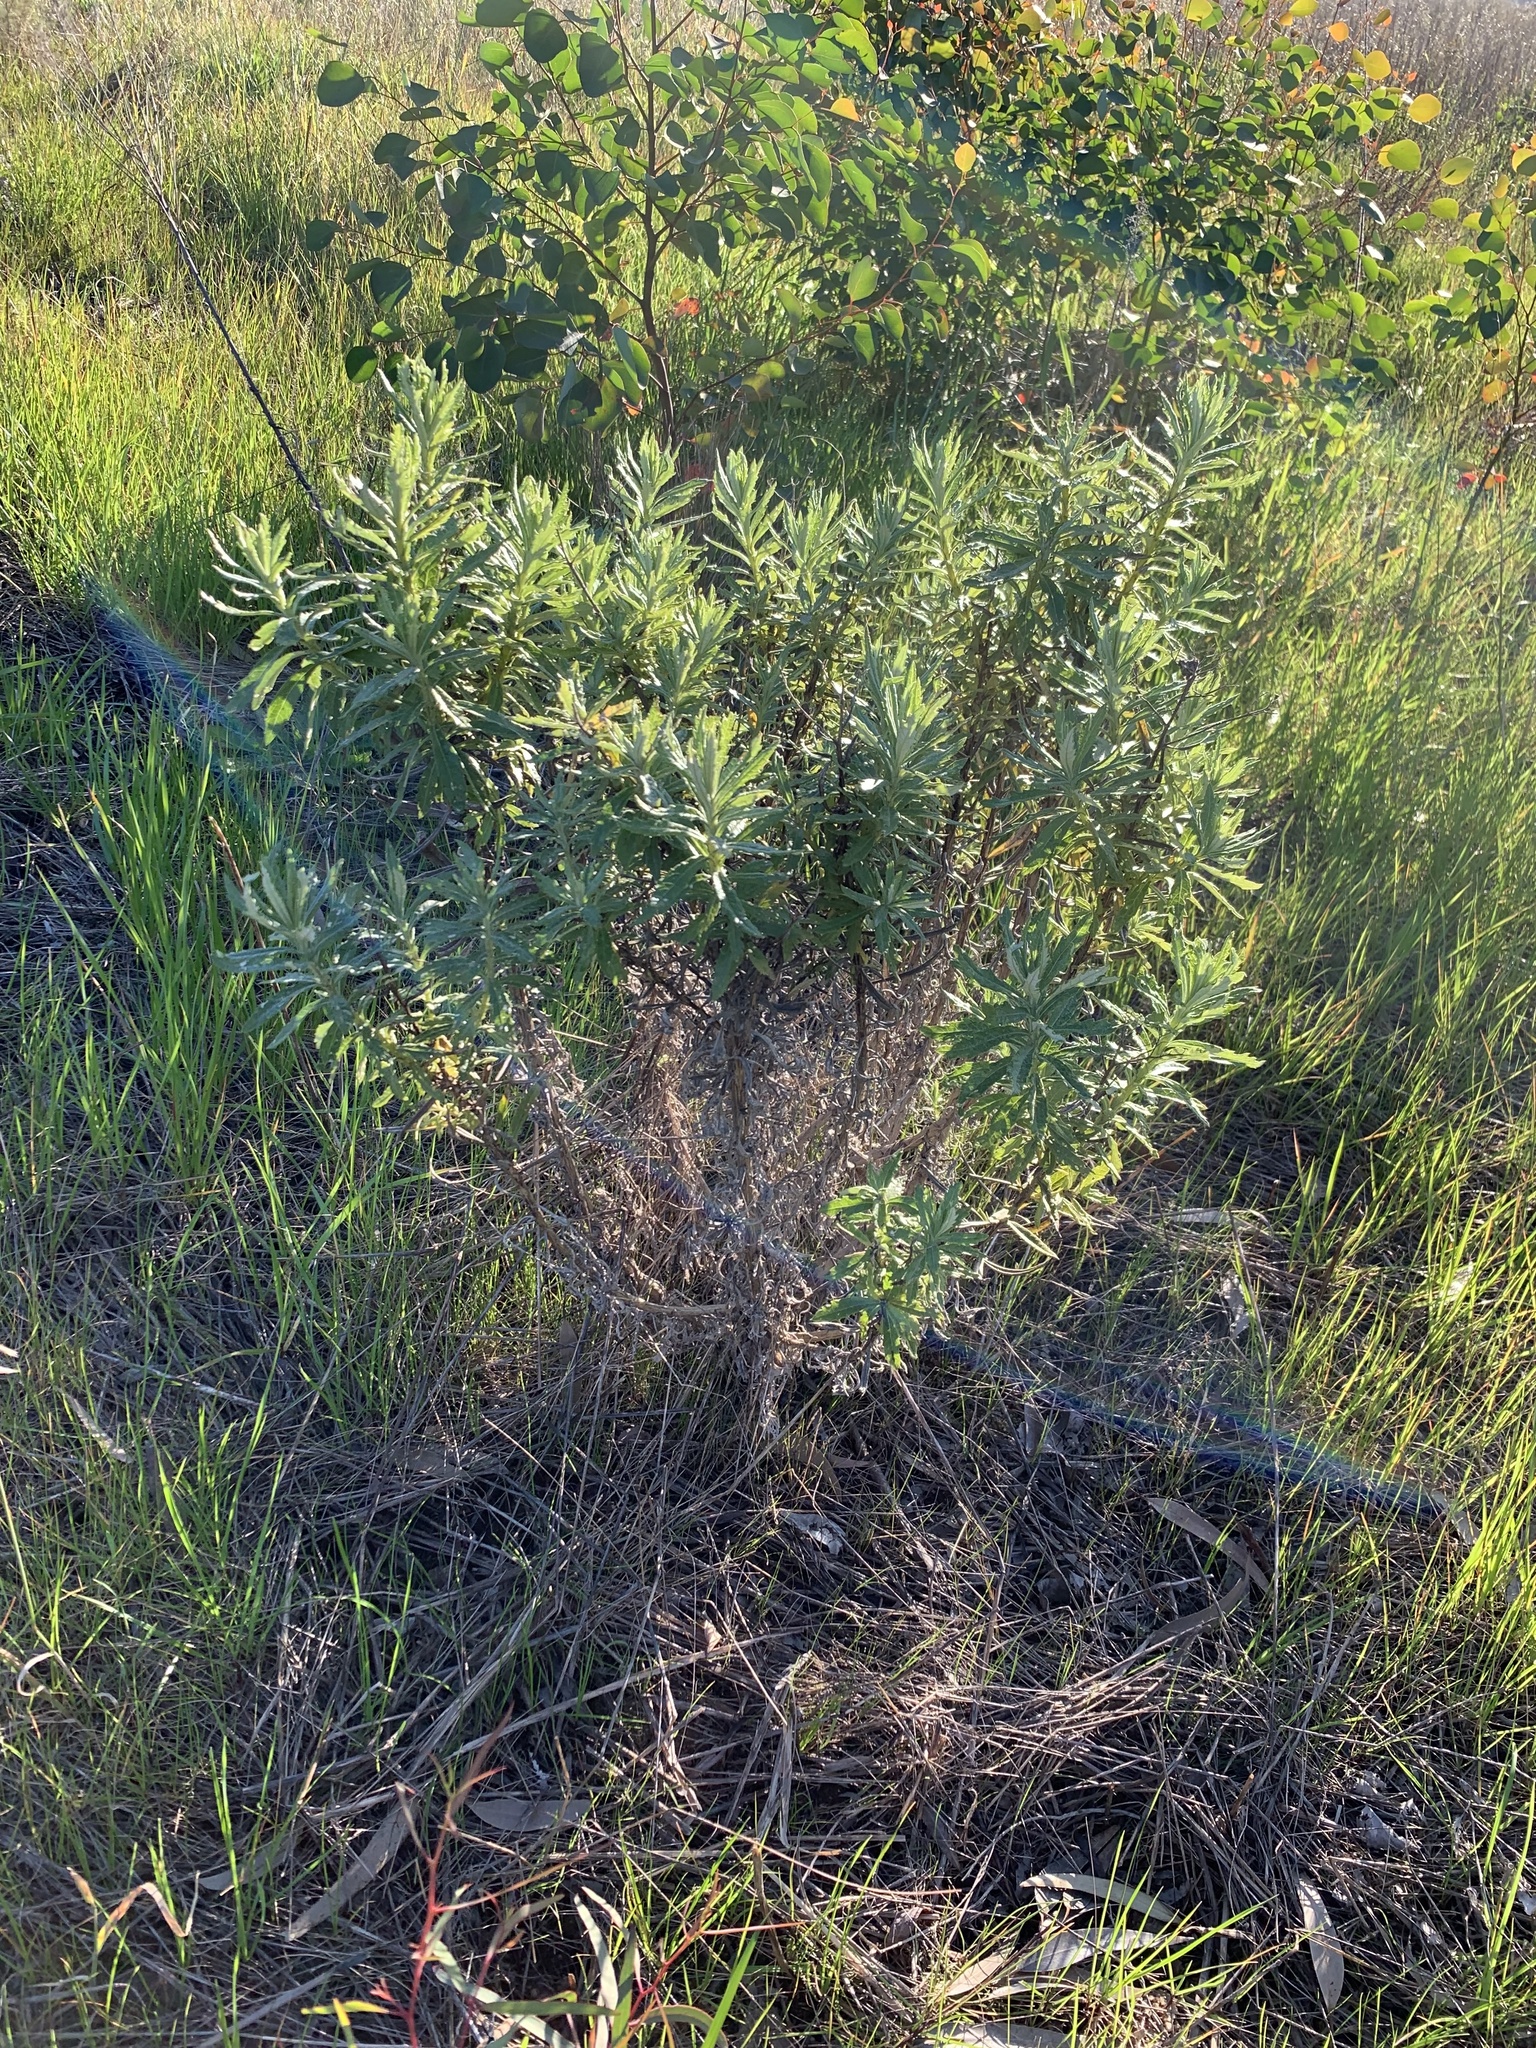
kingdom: Plantae
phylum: Tracheophyta
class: Magnoliopsida
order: Asterales
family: Asteraceae
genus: Senecio
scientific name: Senecio pterophorus
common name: Shoddy ragwort
